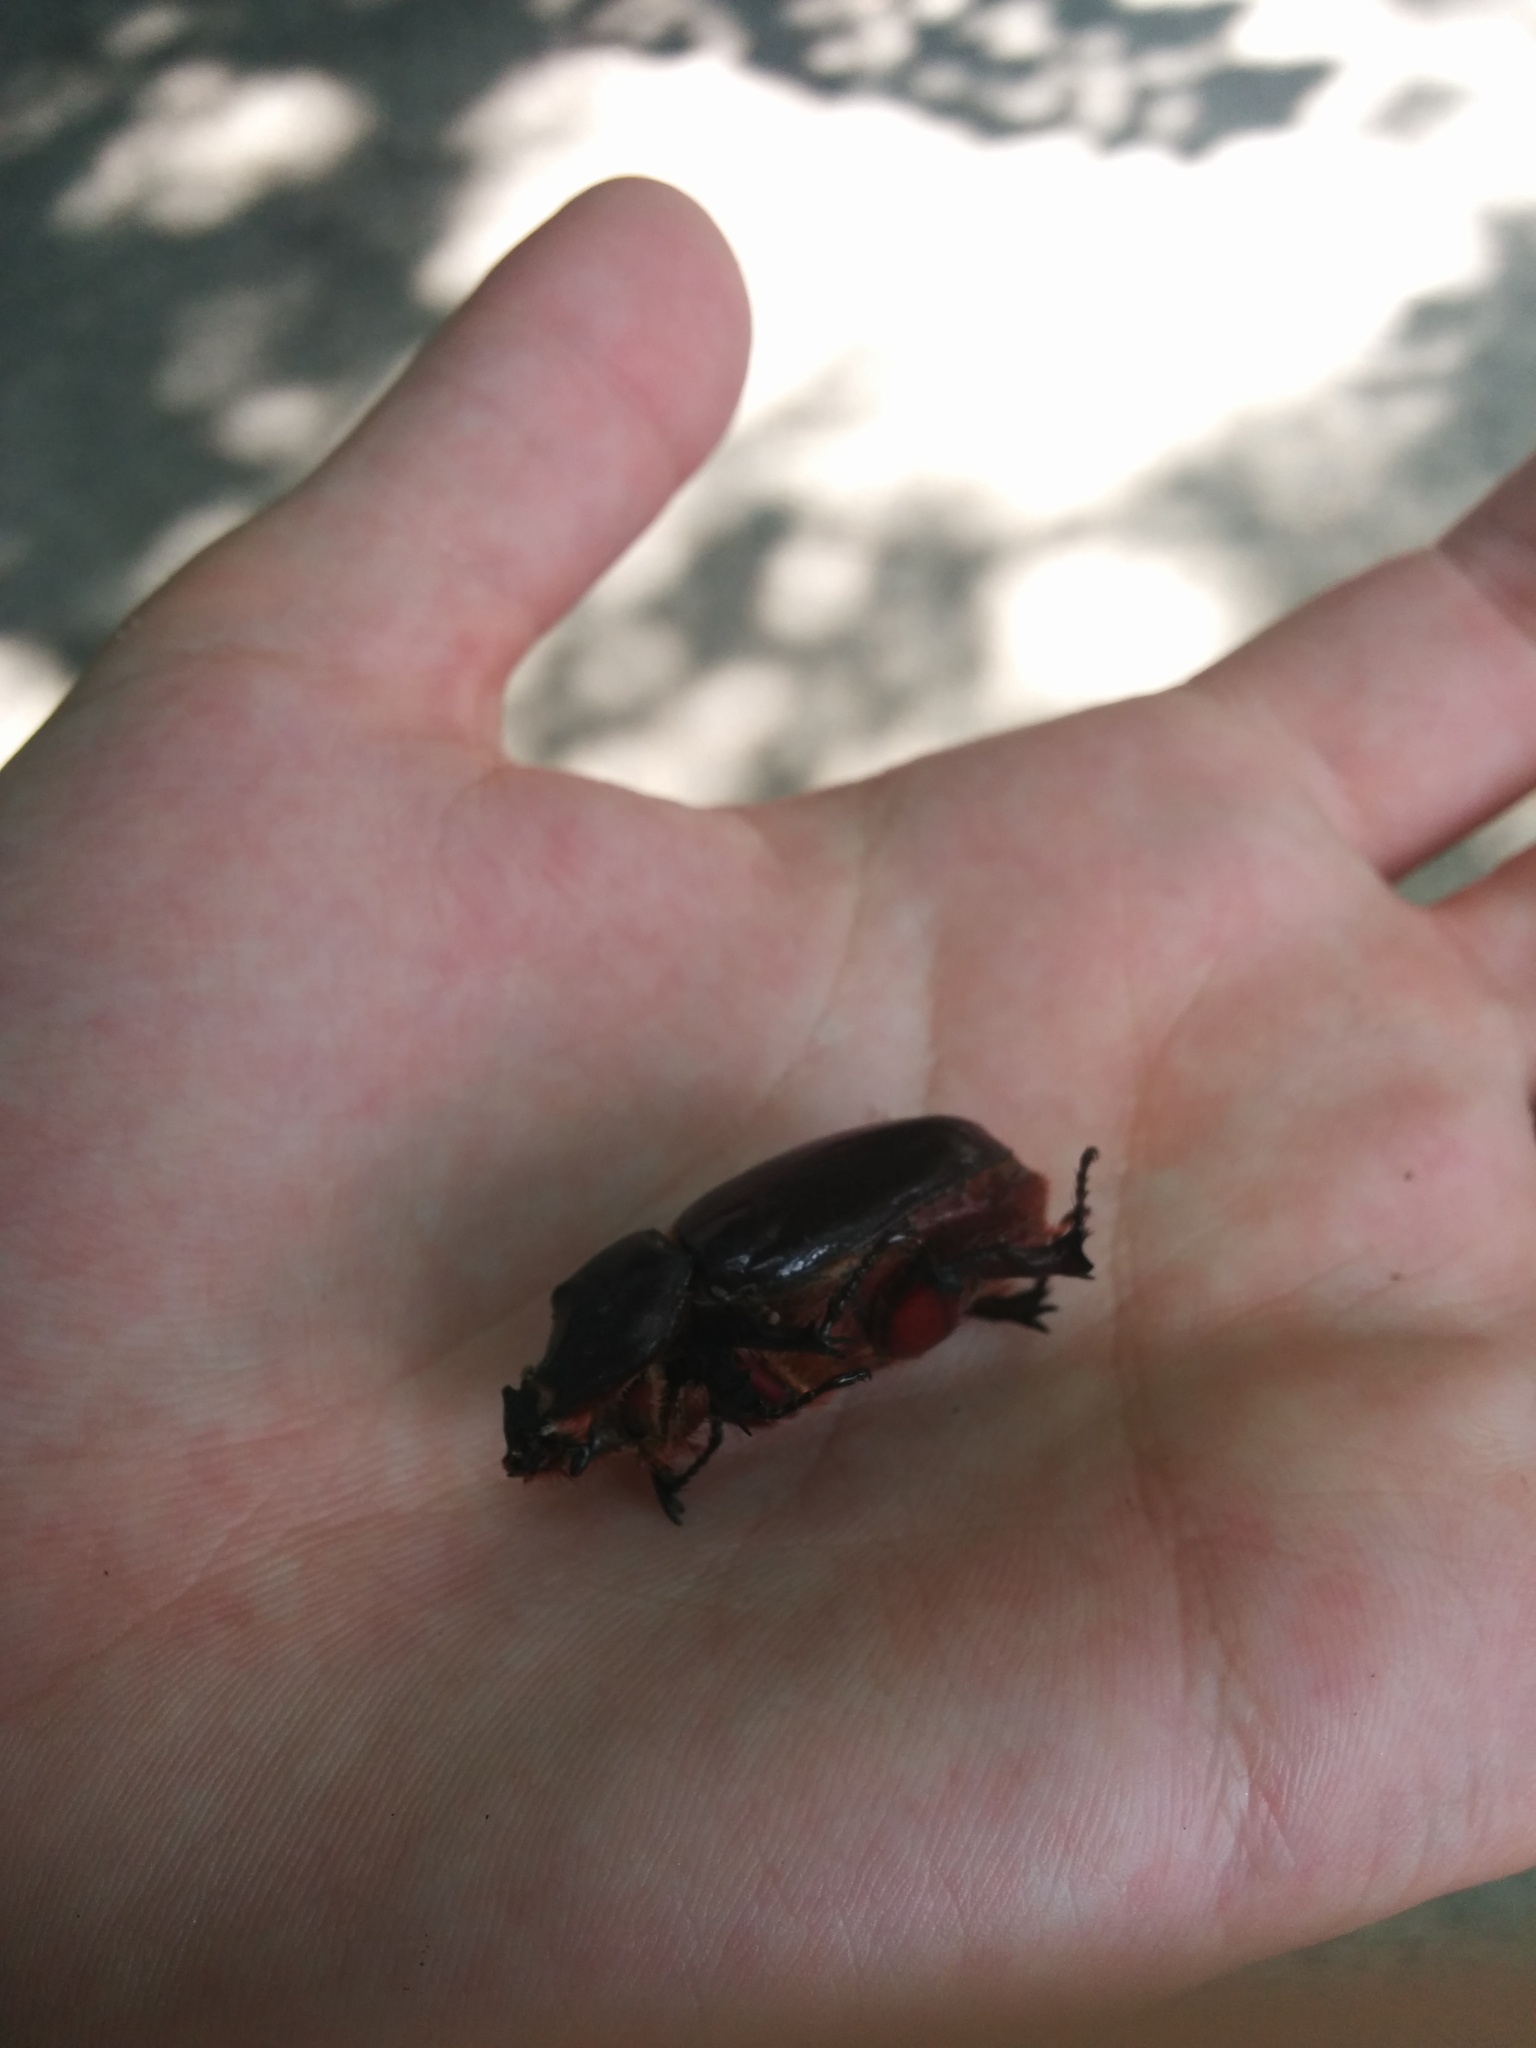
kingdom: Animalia
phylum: Arthropoda
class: Insecta
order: Coleoptera
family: Scarabaeidae
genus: Oryctes
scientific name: Oryctes nasicornis
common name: European rhinoceros beetle
